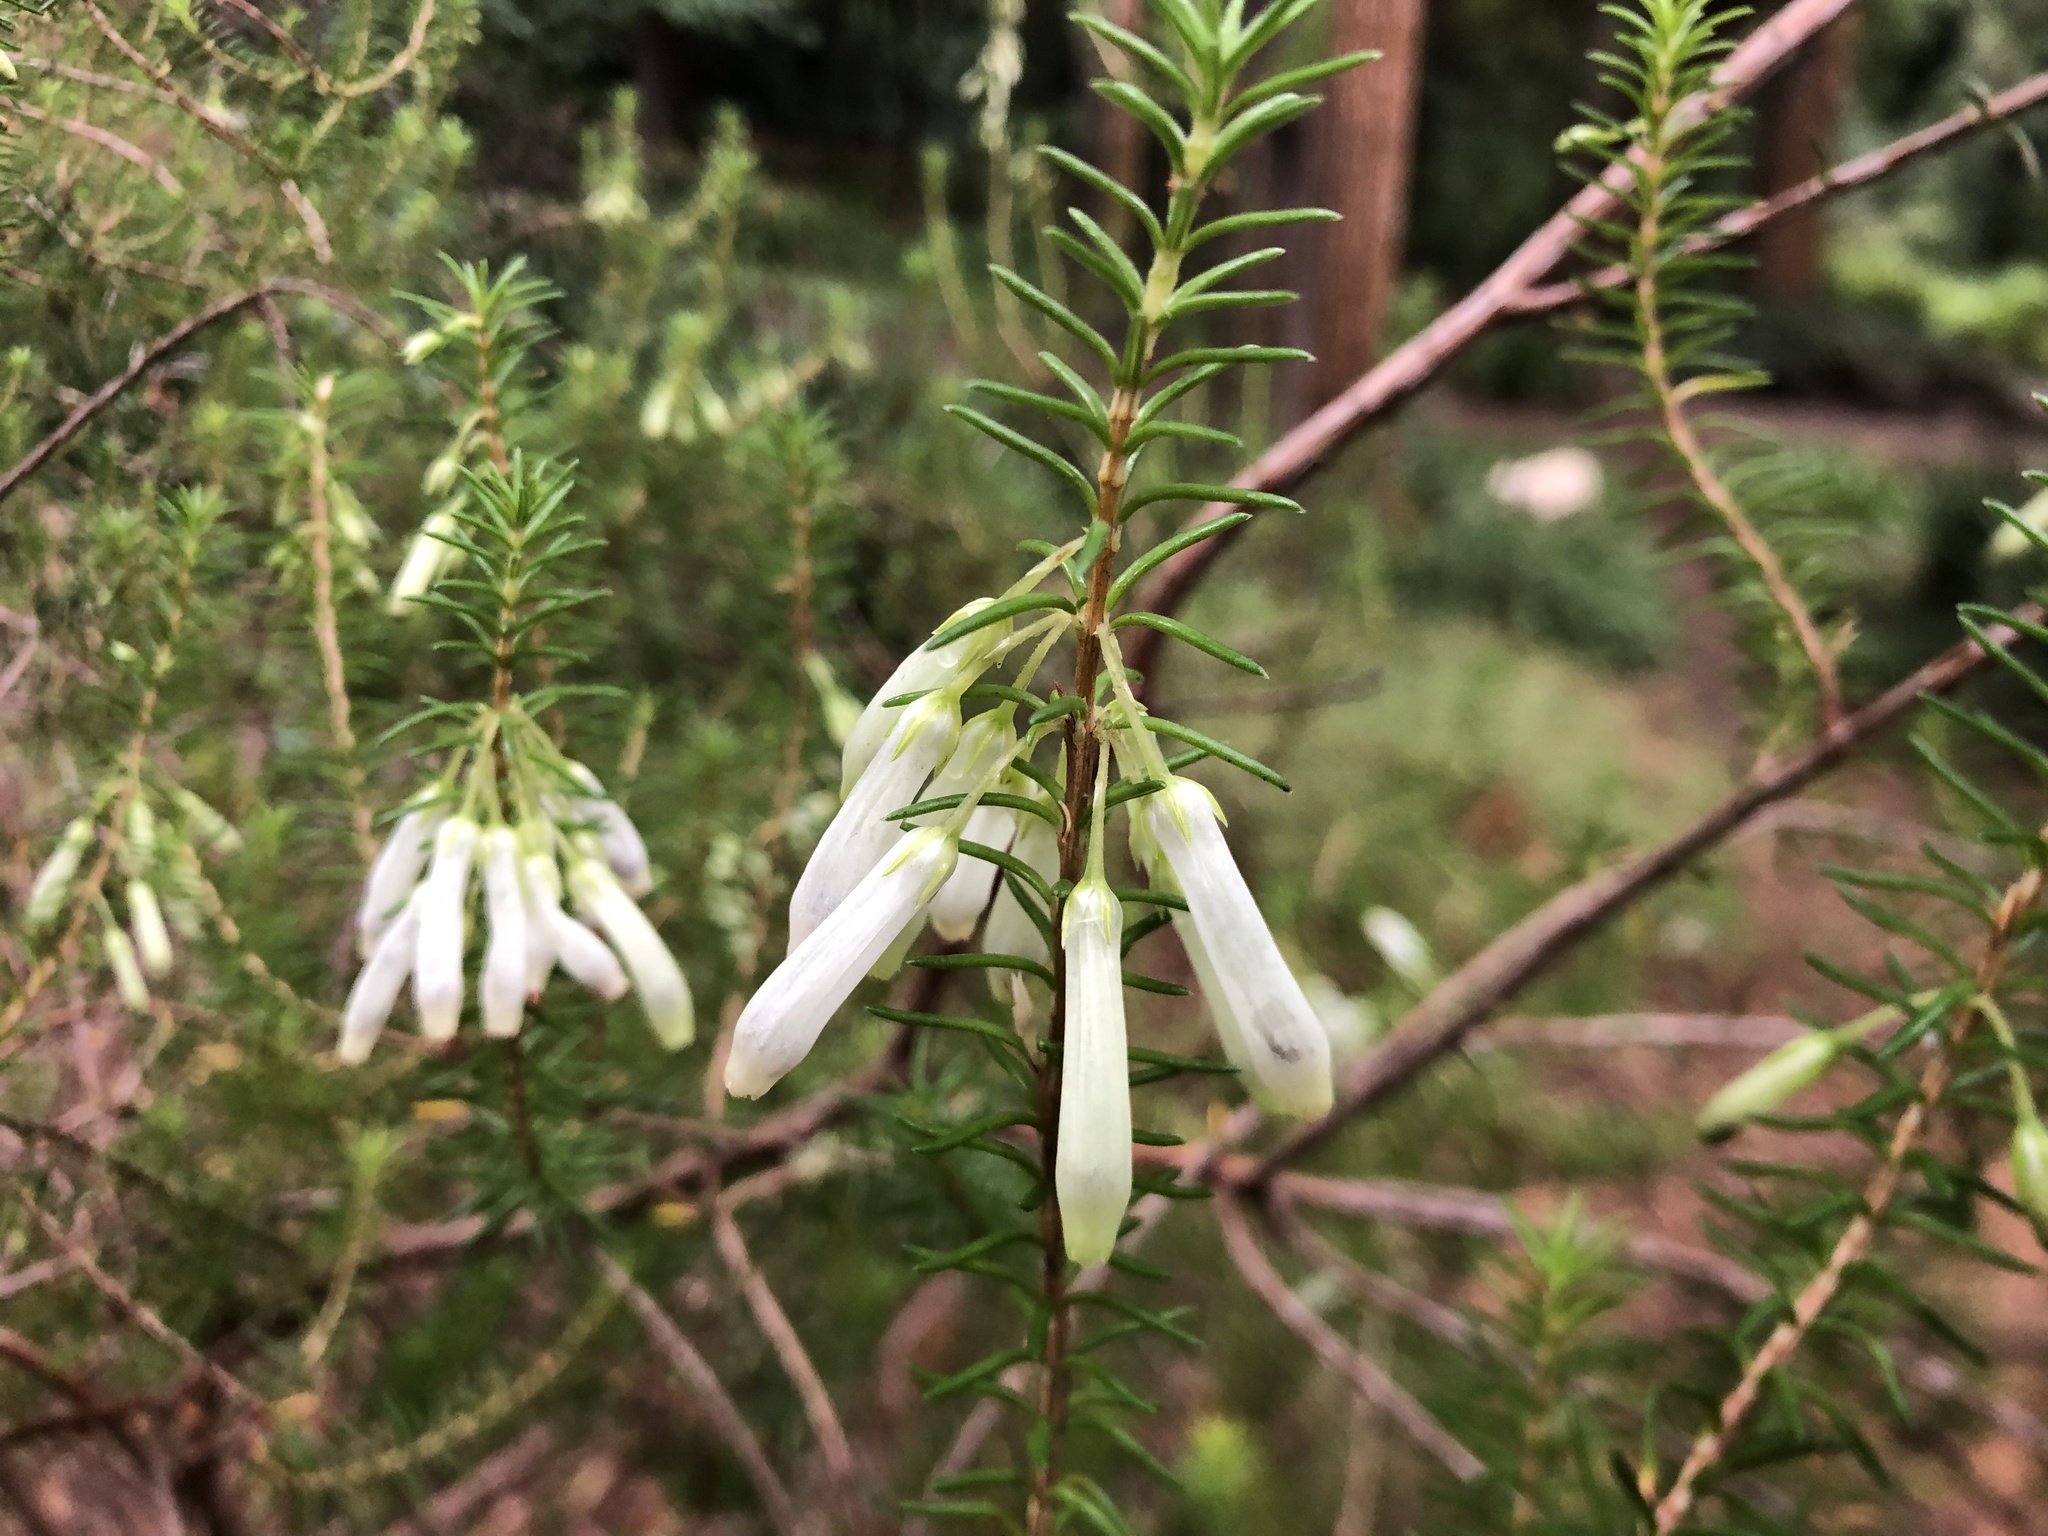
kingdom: Plantae
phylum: Tracheophyta
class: Magnoliopsida
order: Ericales
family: Ericaceae
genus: Erica
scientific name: Erica mammosa
